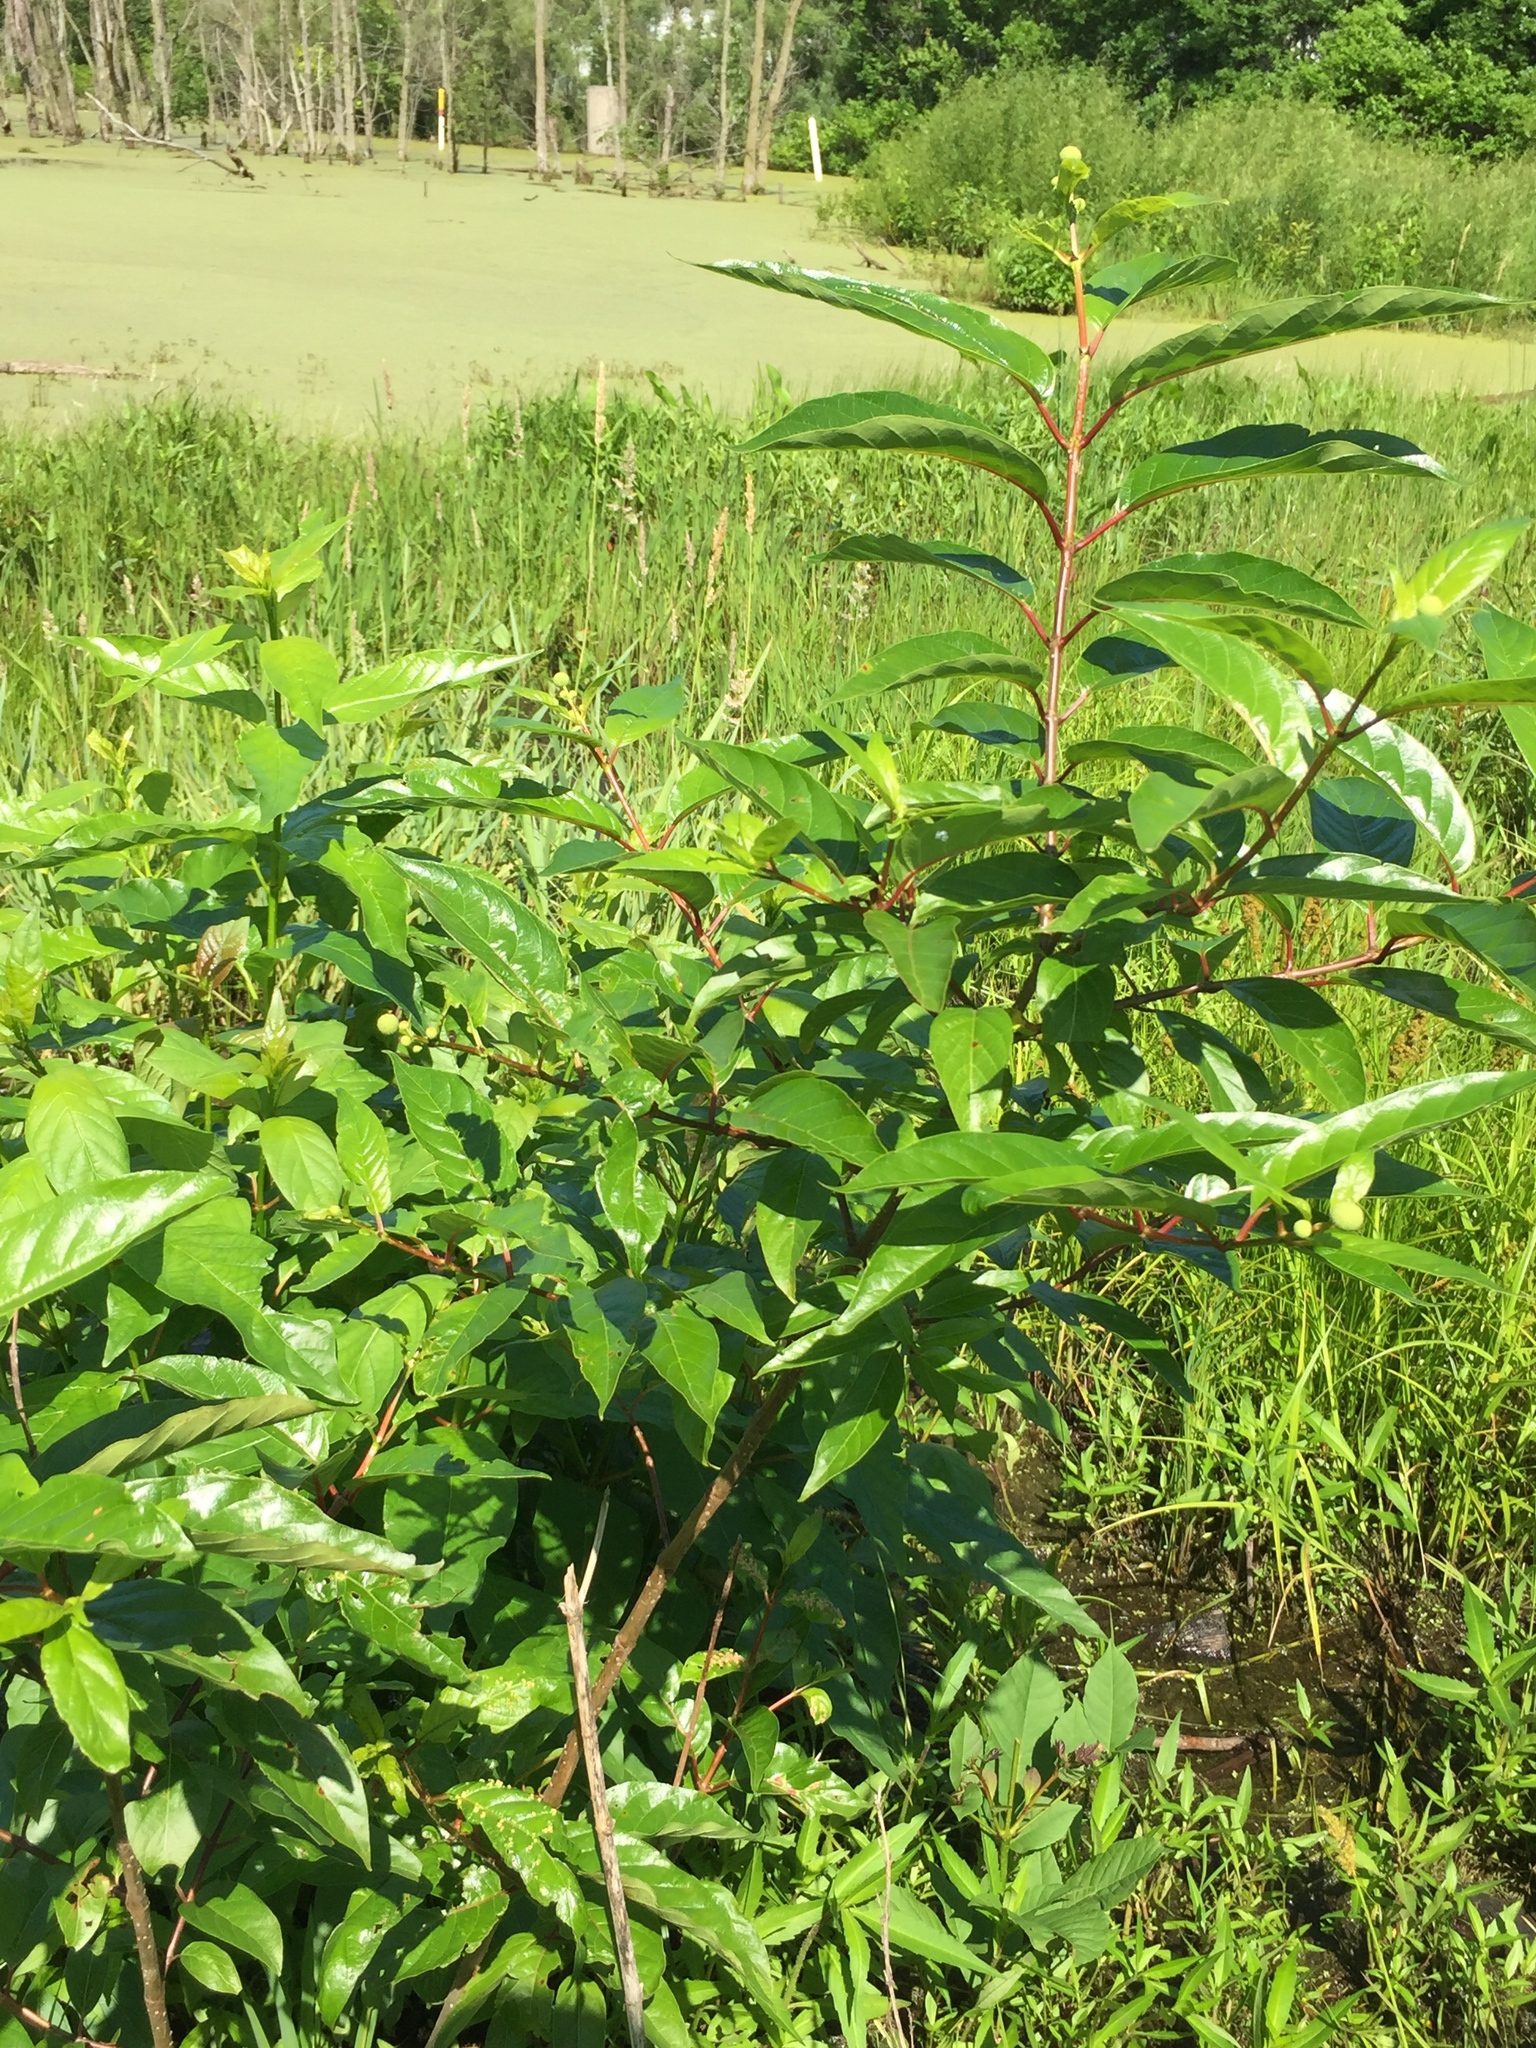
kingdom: Plantae
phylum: Tracheophyta
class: Magnoliopsida
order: Gentianales
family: Rubiaceae
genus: Cephalanthus
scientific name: Cephalanthus occidentalis
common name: Button-willow
